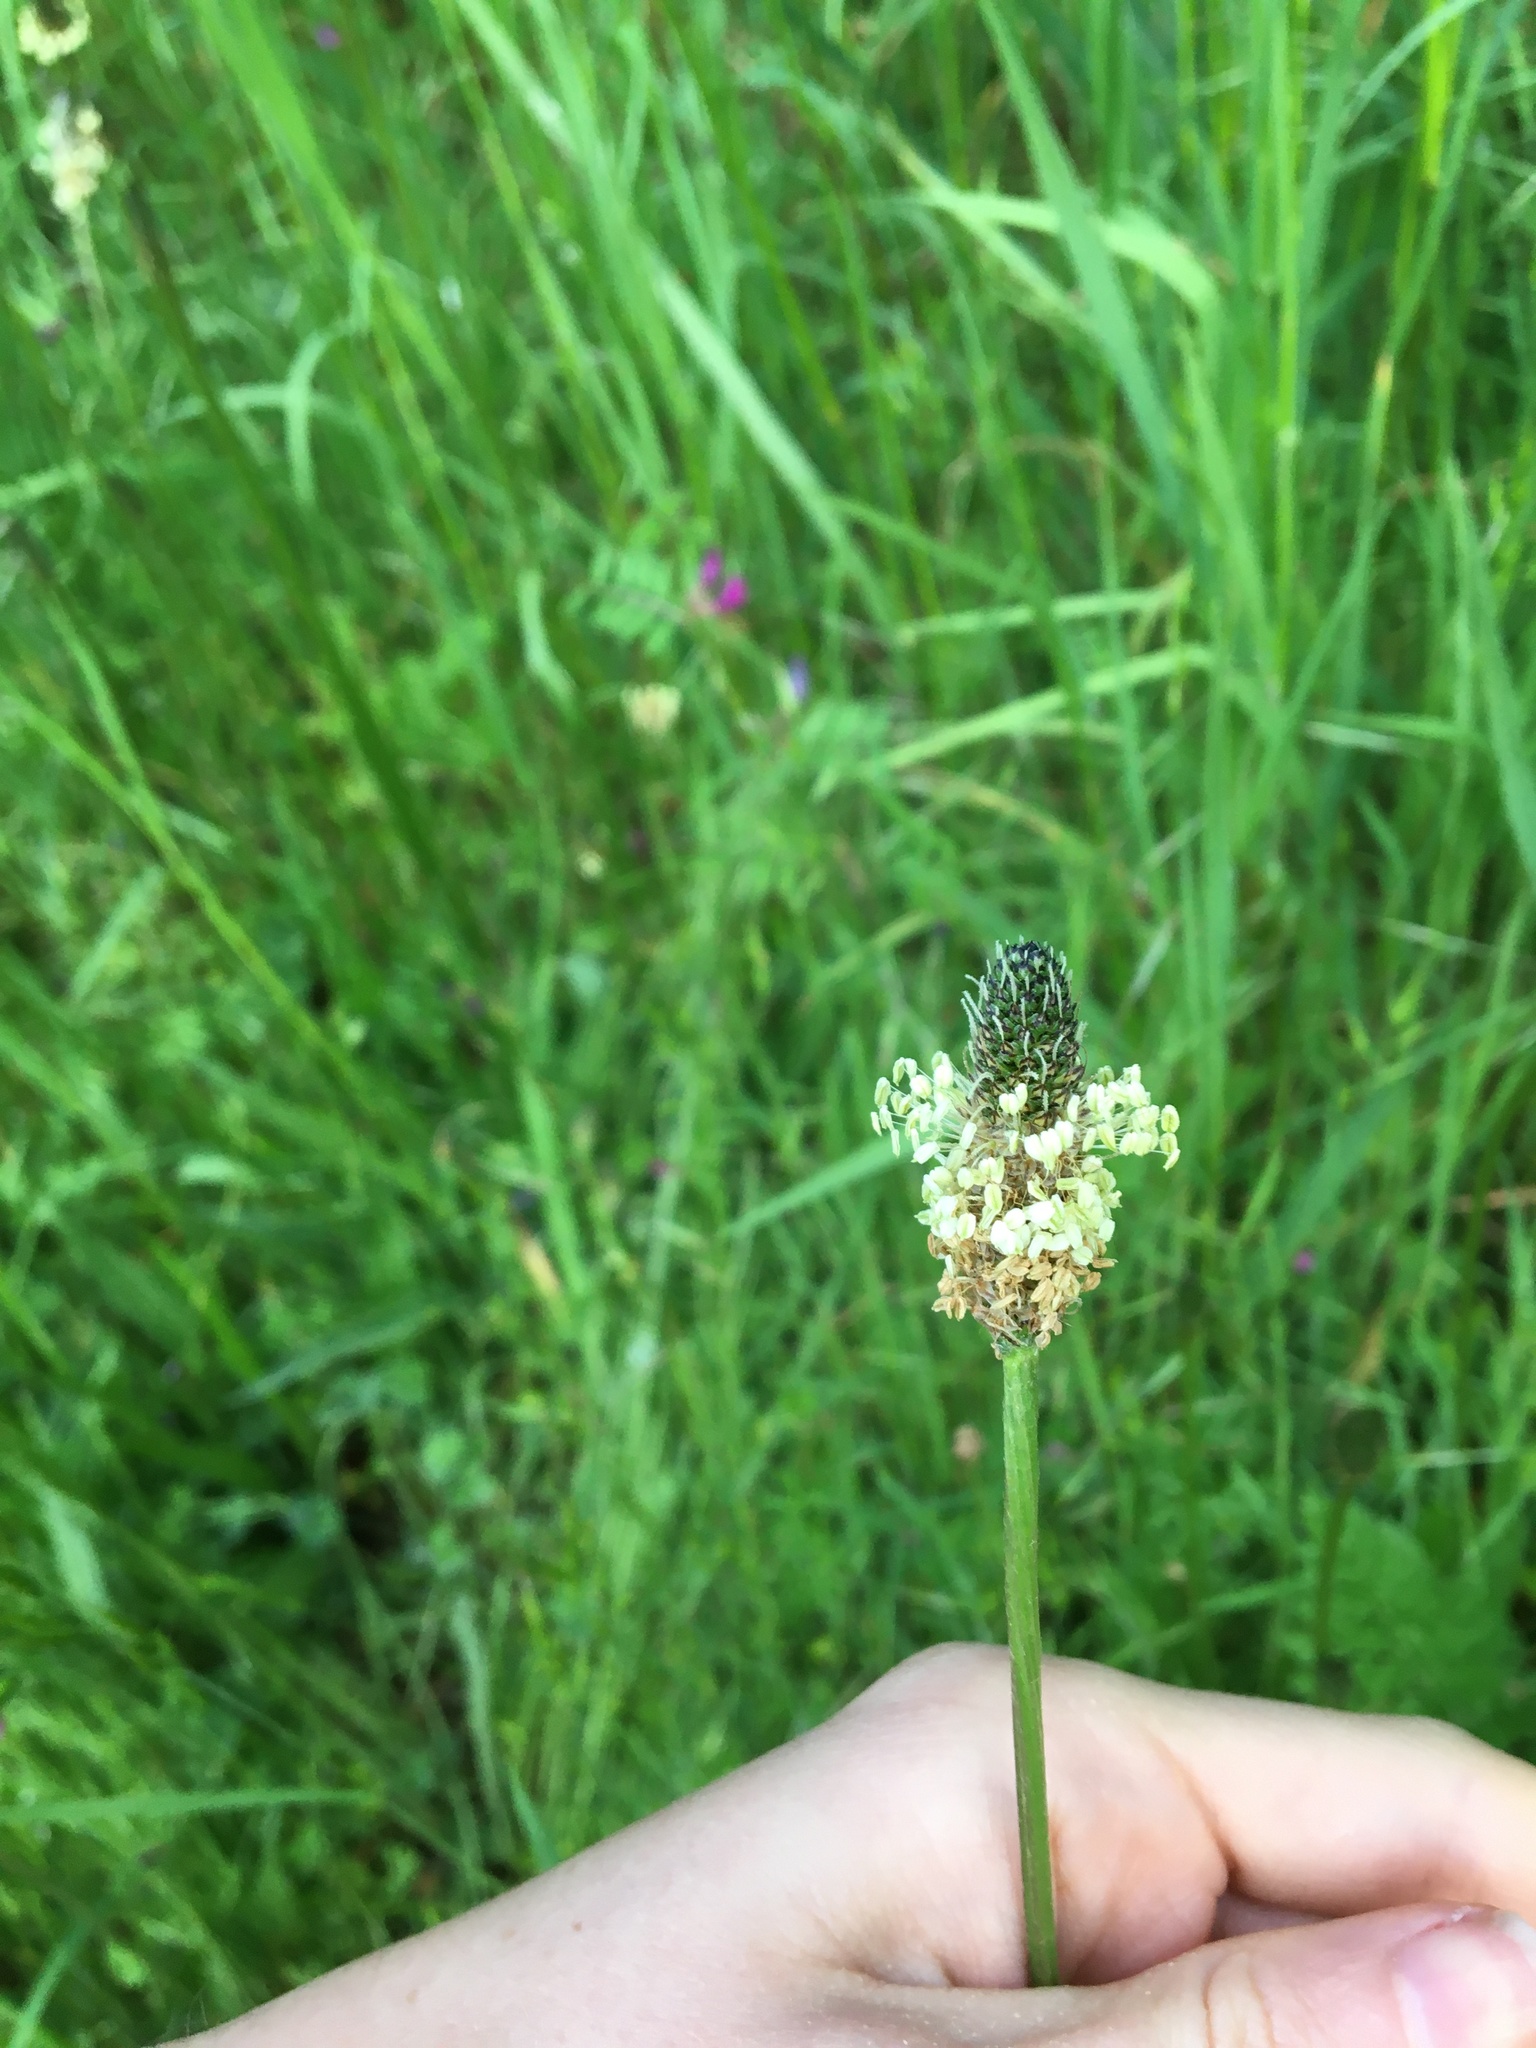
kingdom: Plantae
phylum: Tracheophyta
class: Magnoliopsida
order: Lamiales
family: Plantaginaceae
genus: Plantago
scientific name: Plantago lanceolata
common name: Ribwort plantain
